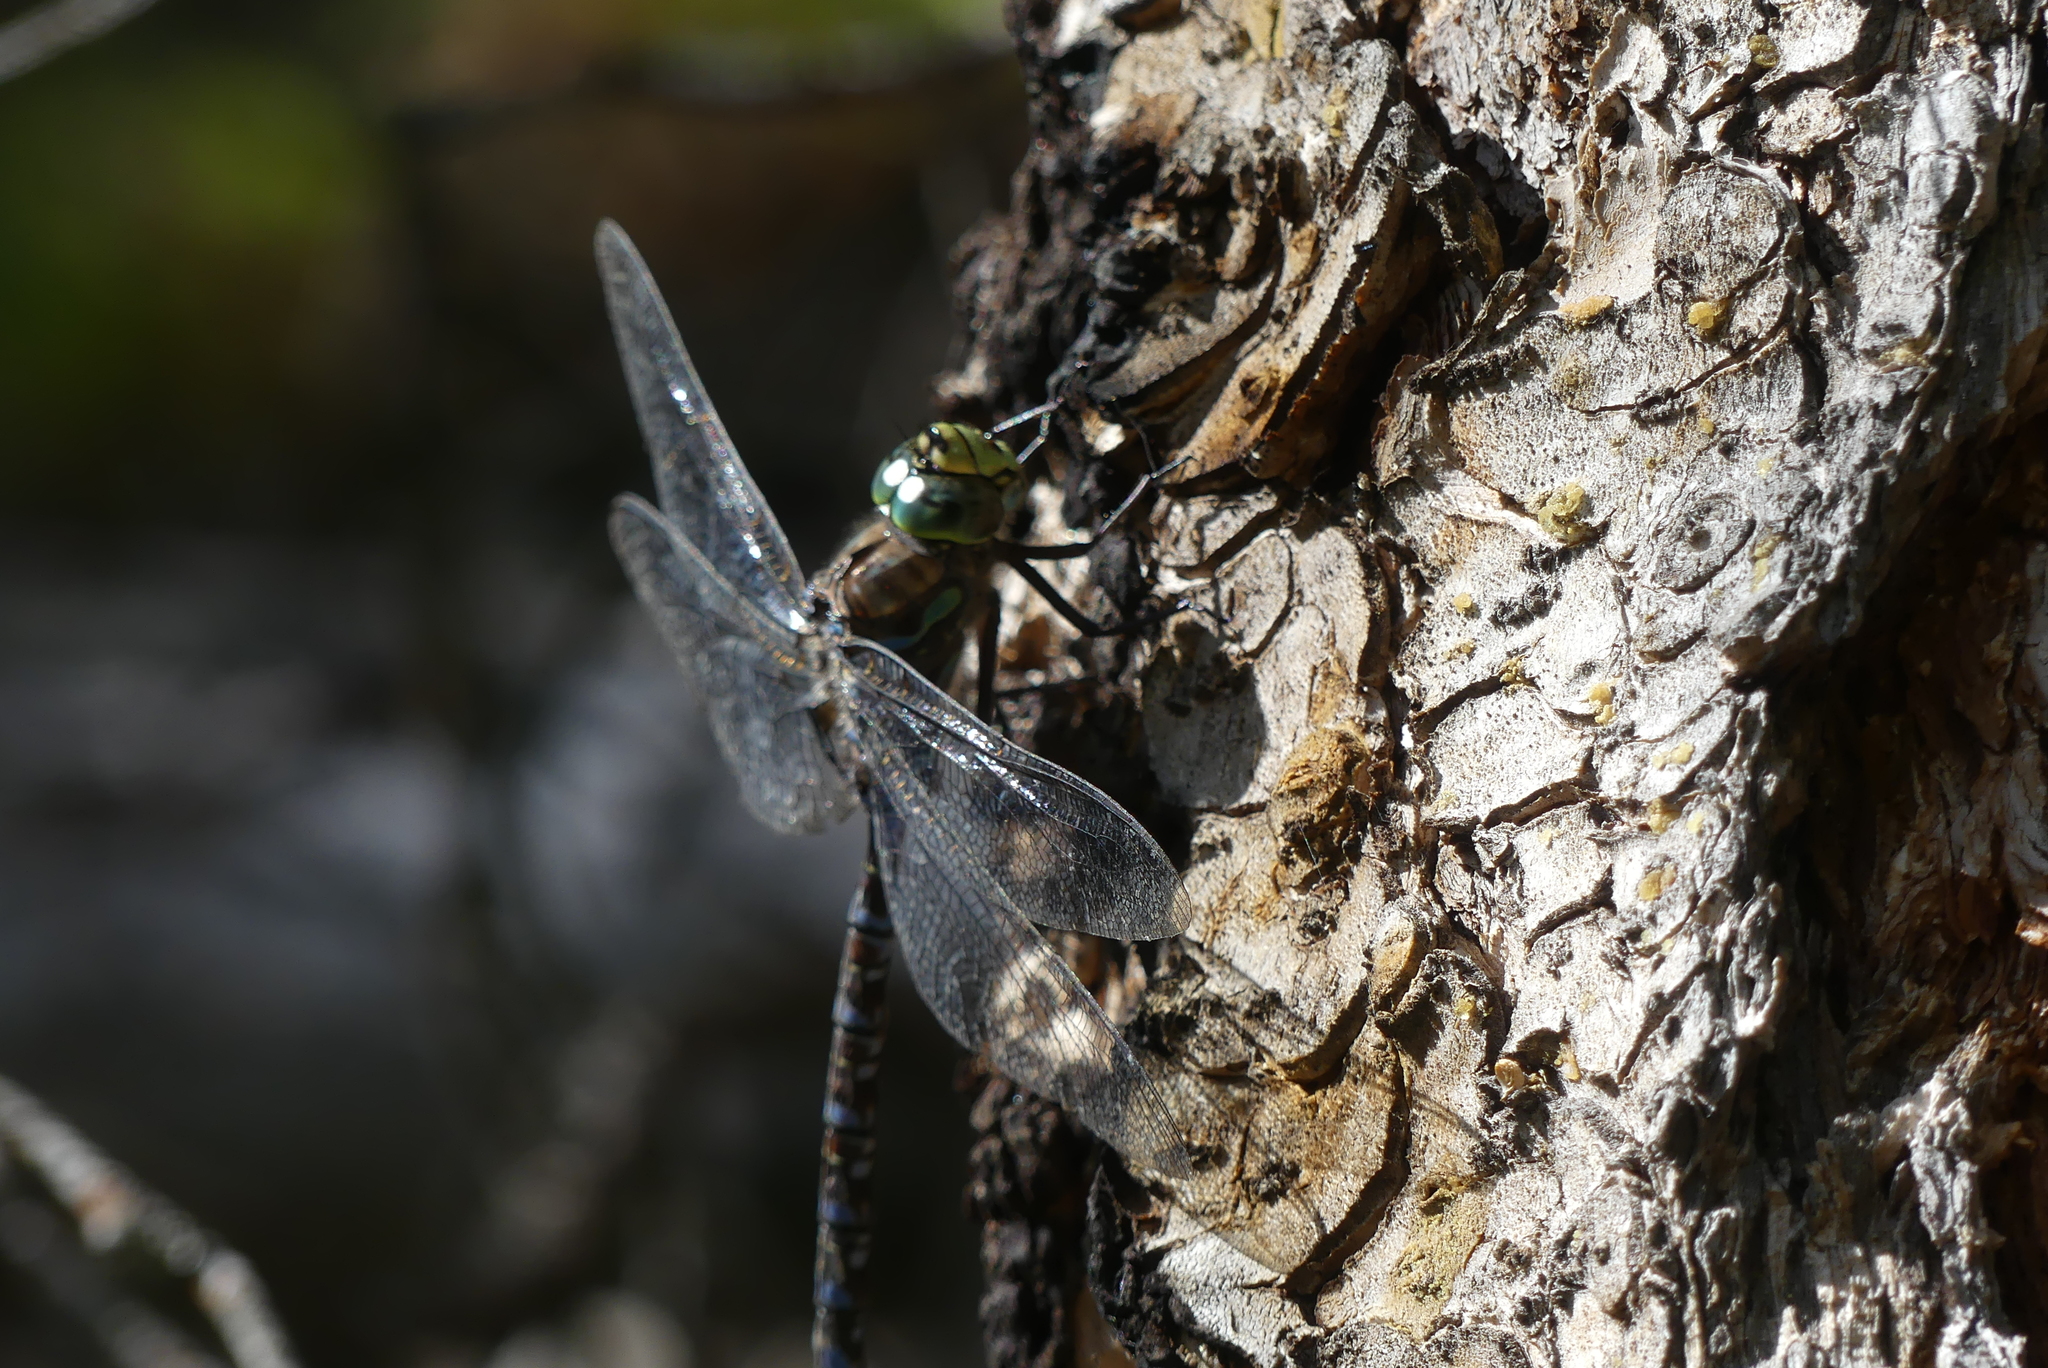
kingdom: Animalia
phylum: Arthropoda
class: Insecta
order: Odonata
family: Aeshnidae
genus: Aeshna
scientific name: Aeshna eremita
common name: Lake darner
